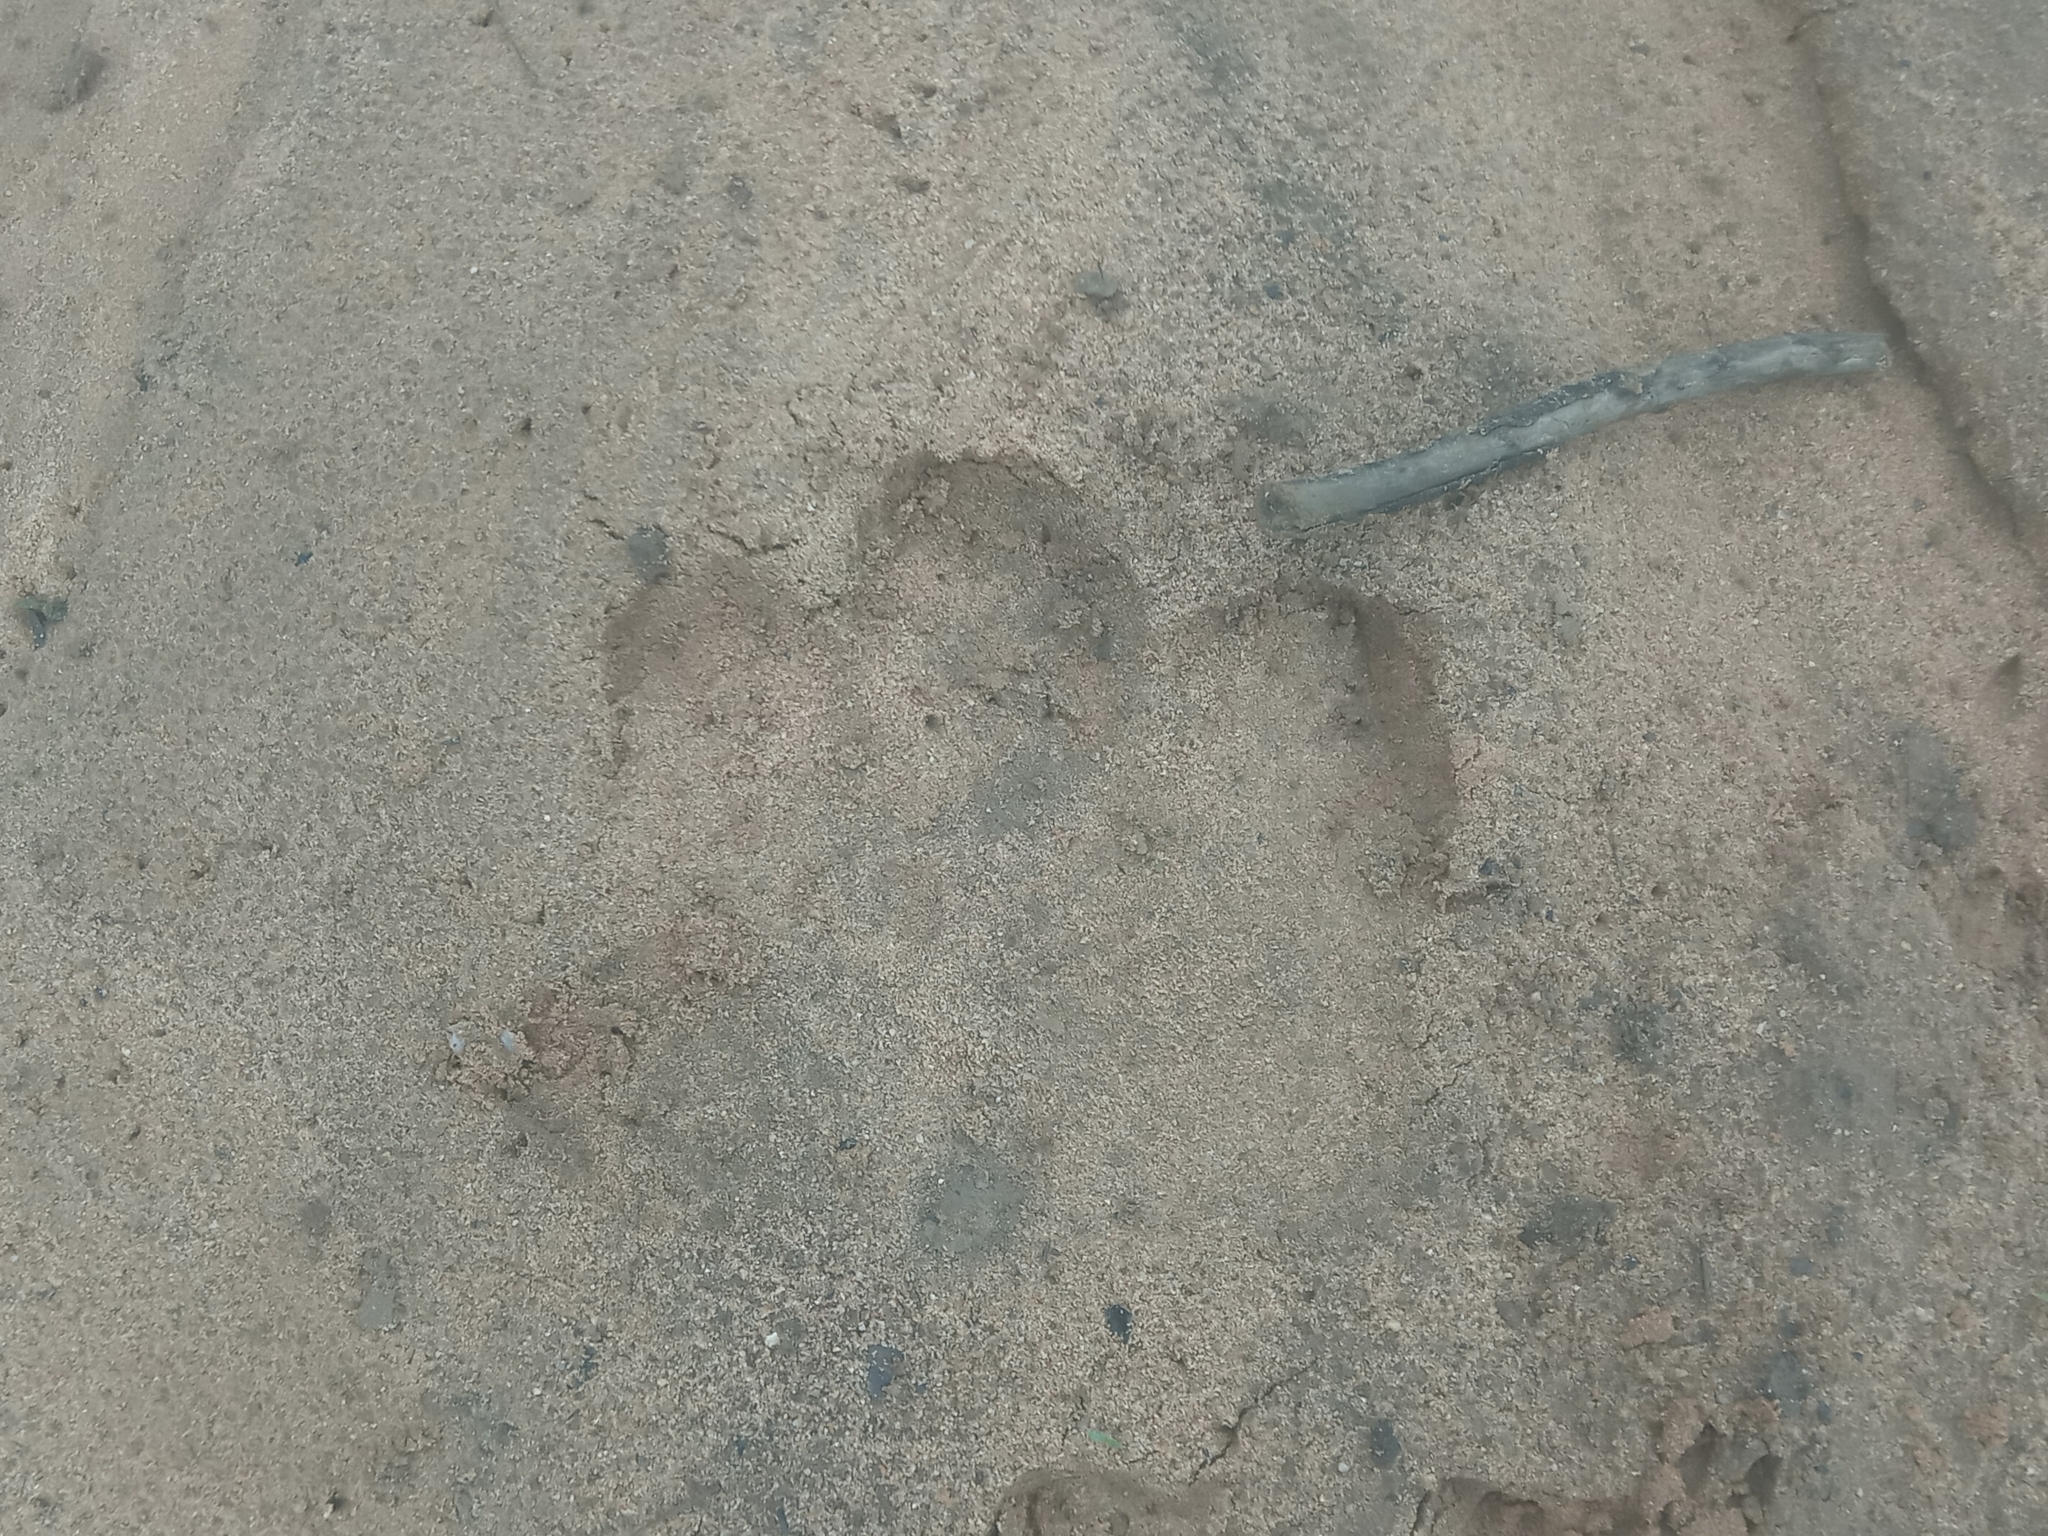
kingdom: Animalia
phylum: Chordata
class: Mammalia
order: Artiodactyla
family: Hippopotamidae
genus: Hippopotamus
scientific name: Hippopotamus amphibius
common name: Common hippopotamus
